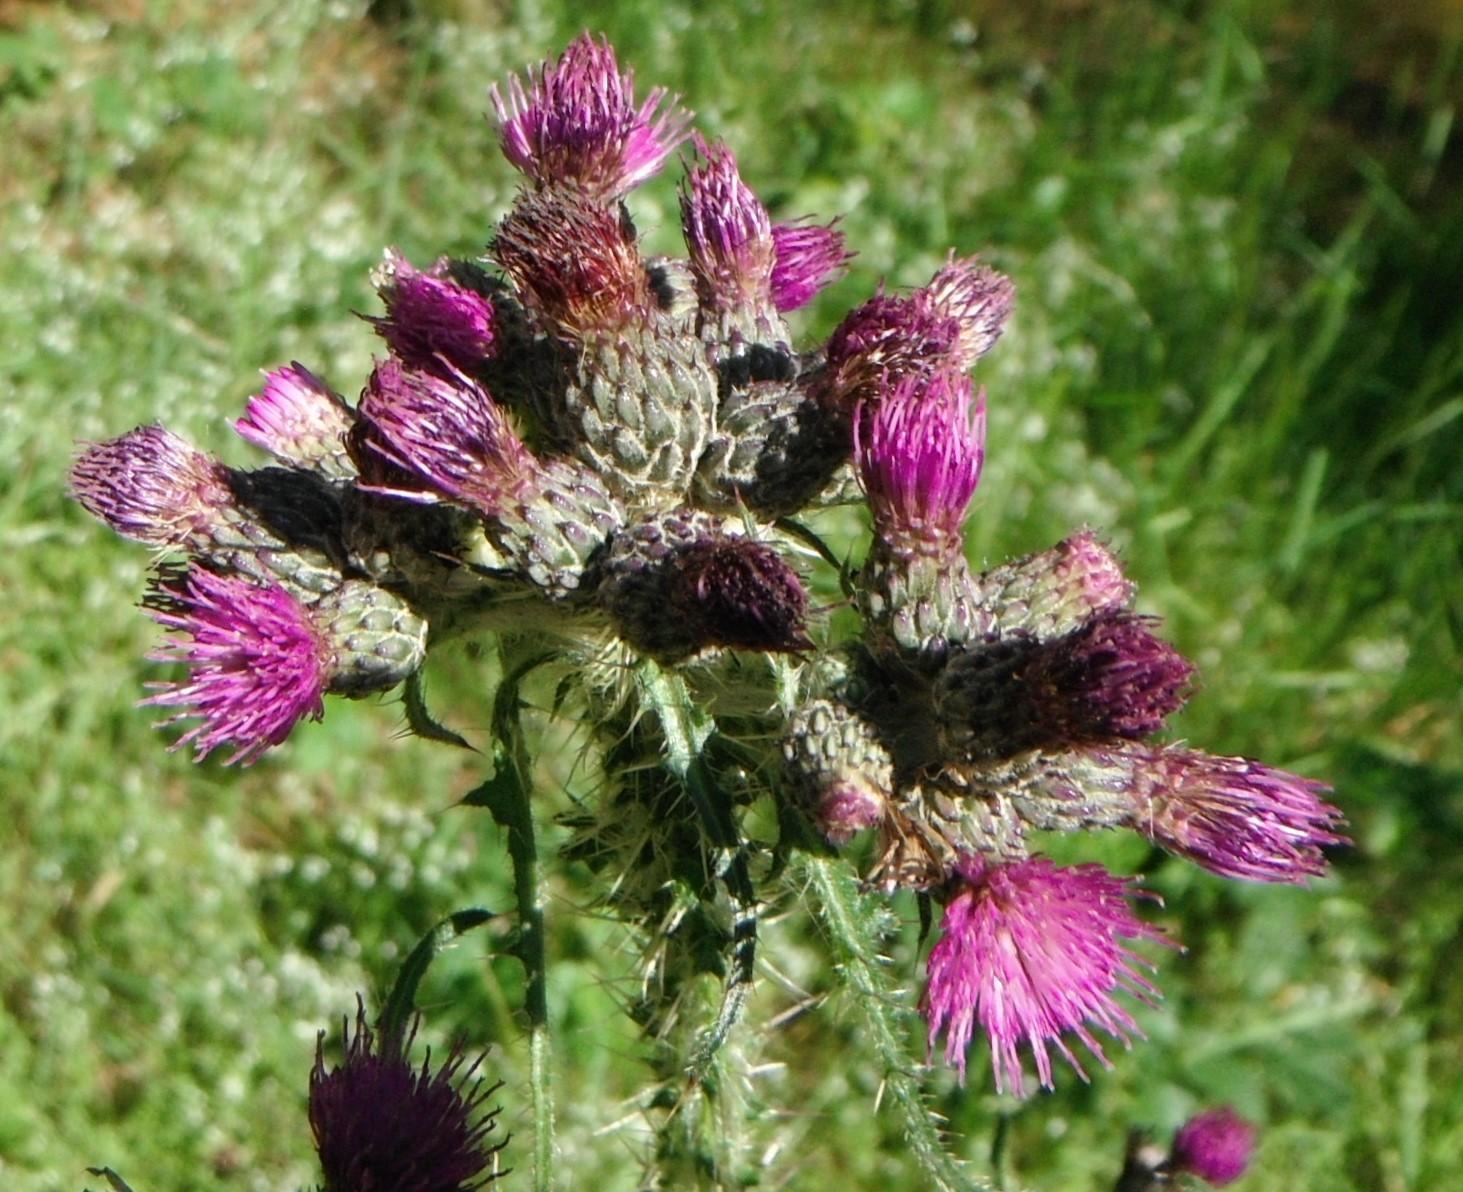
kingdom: Plantae
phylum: Tracheophyta
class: Magnoliopsida
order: Asterales
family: Asteraceae
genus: Cirsium
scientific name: Cirsium palustre
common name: Marsh thistle
